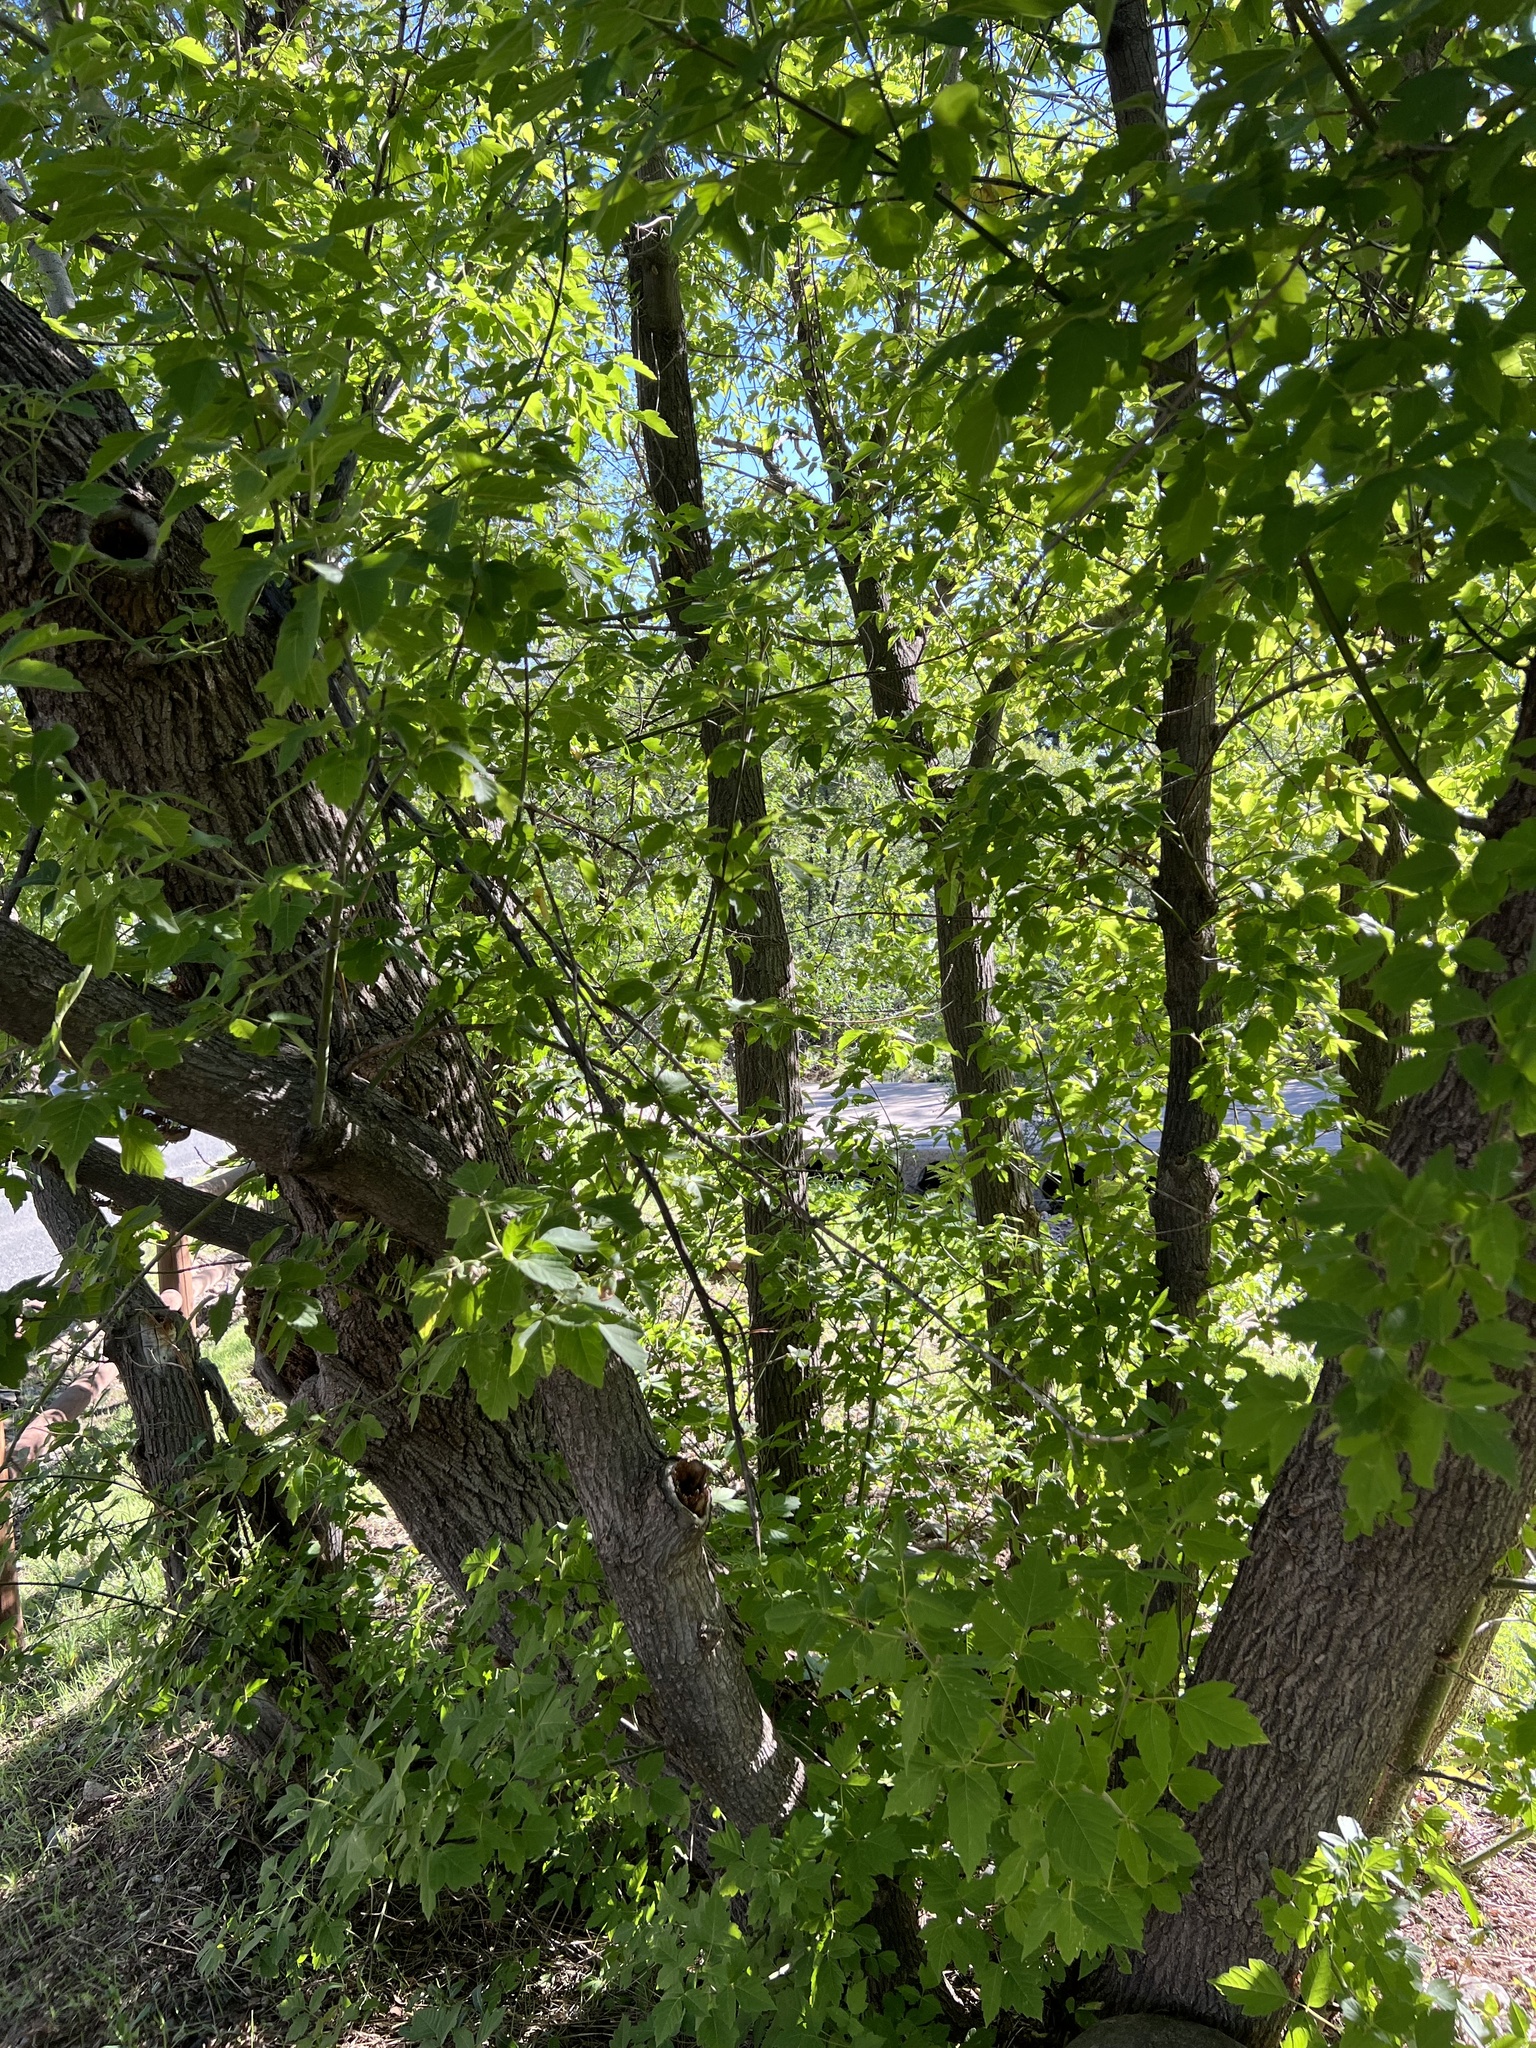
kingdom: Plantae
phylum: Tracheophyta
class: Magnoliopsida
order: Sapindales
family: Sapindaceae
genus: Acer
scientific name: Acer negundo
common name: Ashleaf maple
